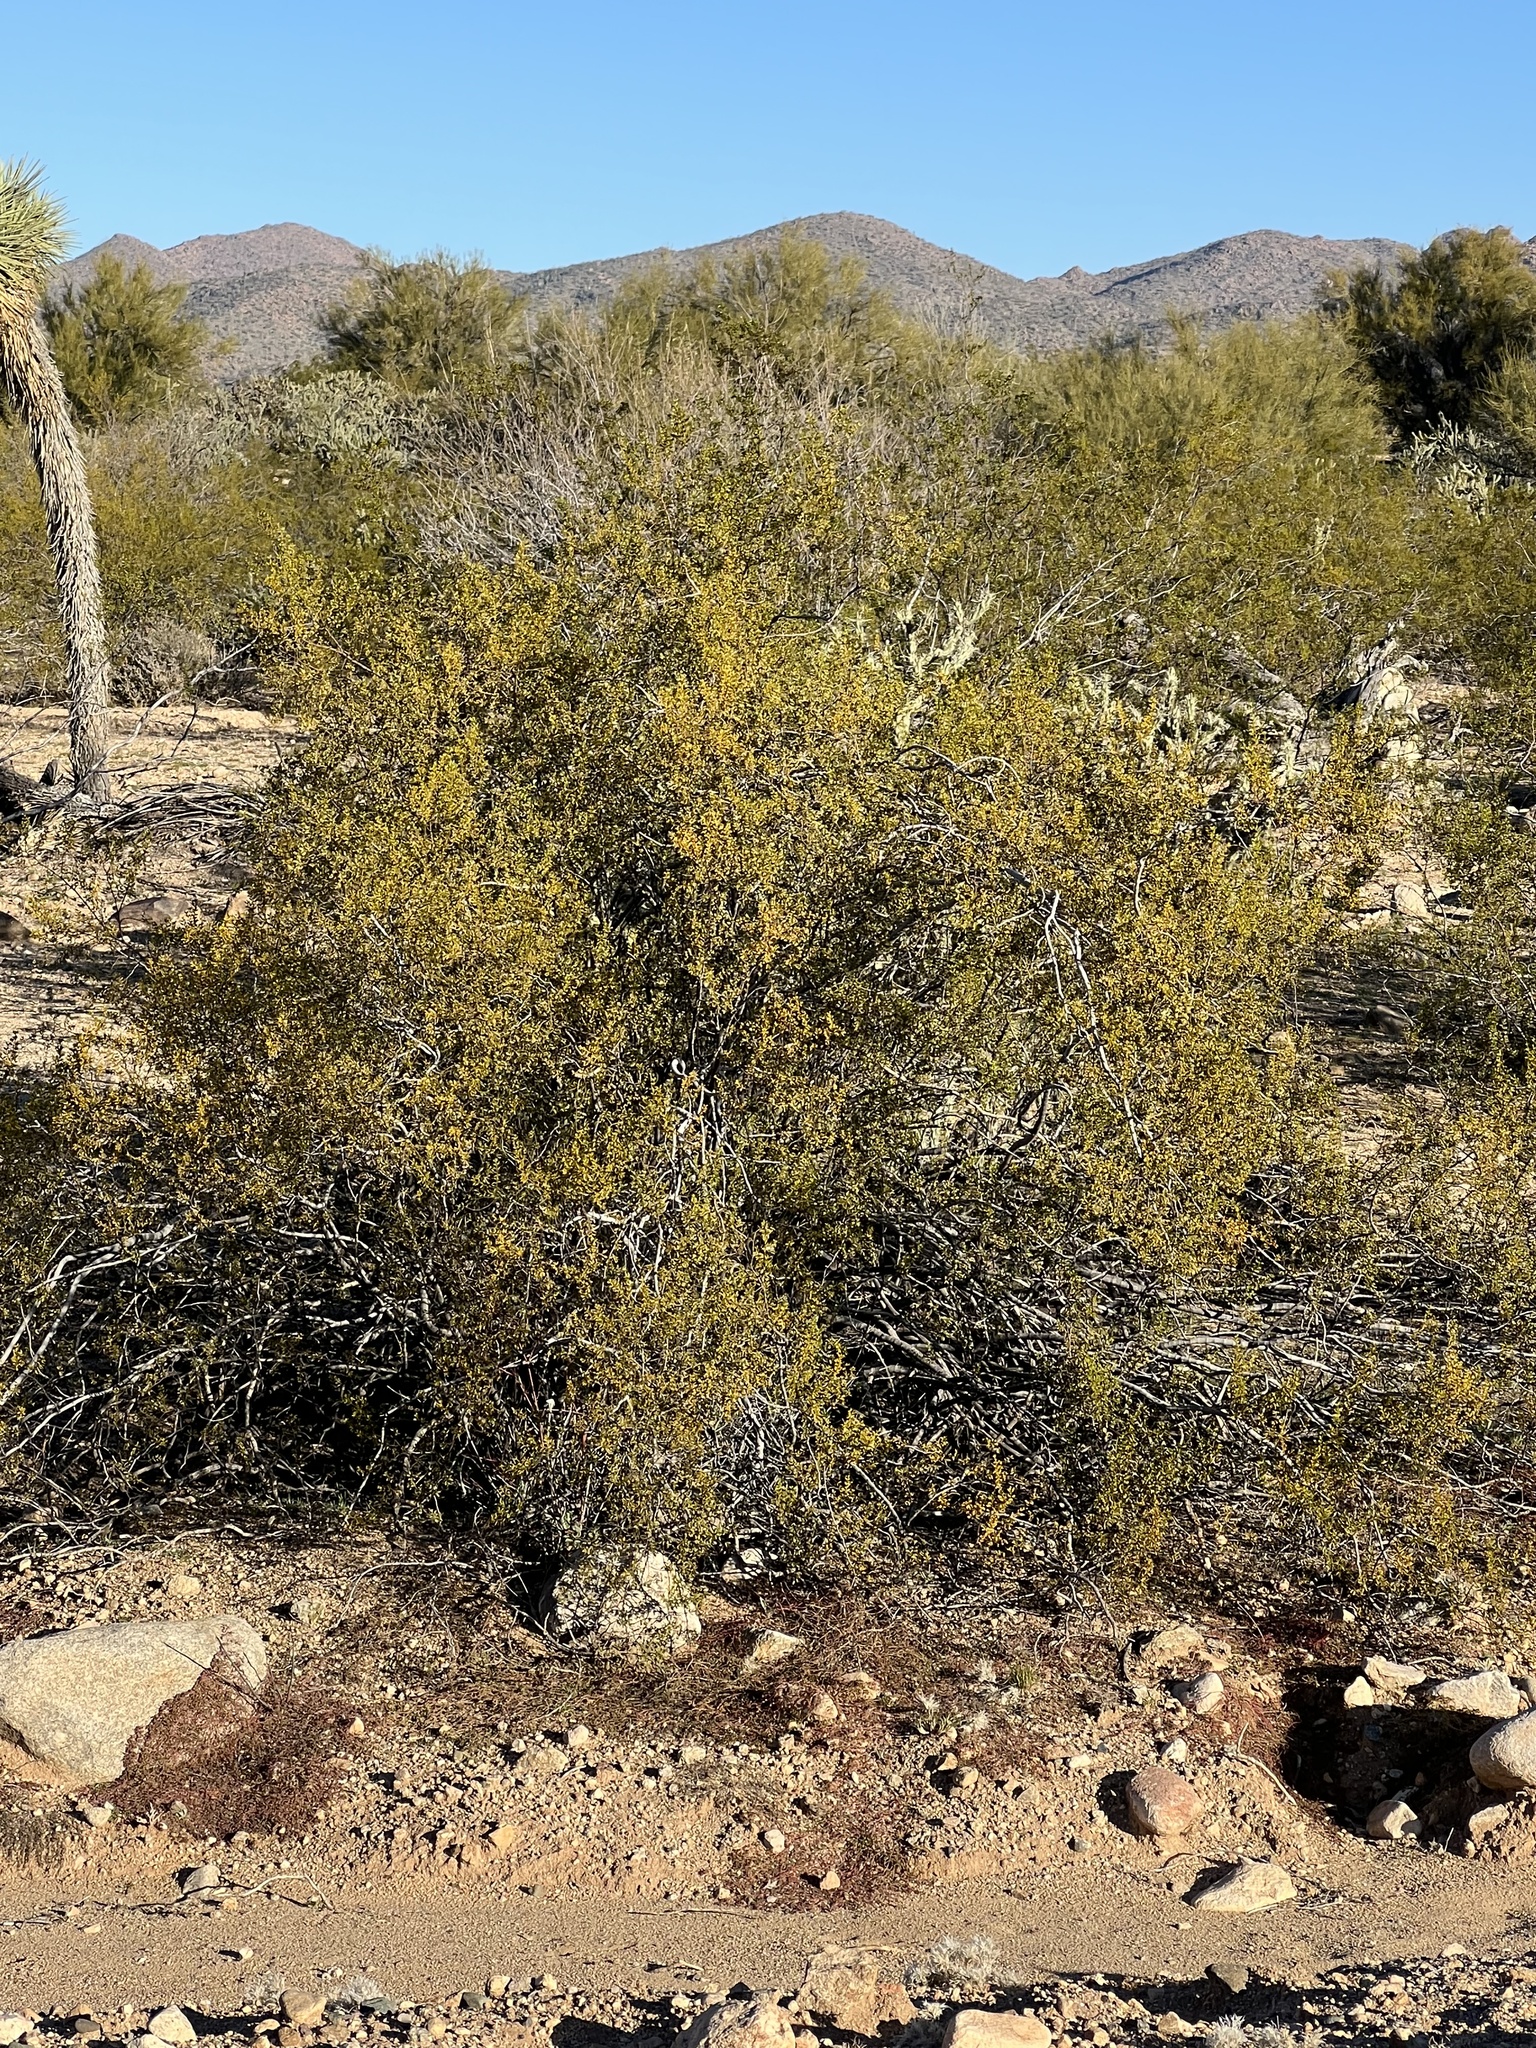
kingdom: Plantae
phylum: Tracheophyta
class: Magnoliopsida
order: Zygophyllales
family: Zygophyllaceae
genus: Larrea
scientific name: Larrea tridentata
